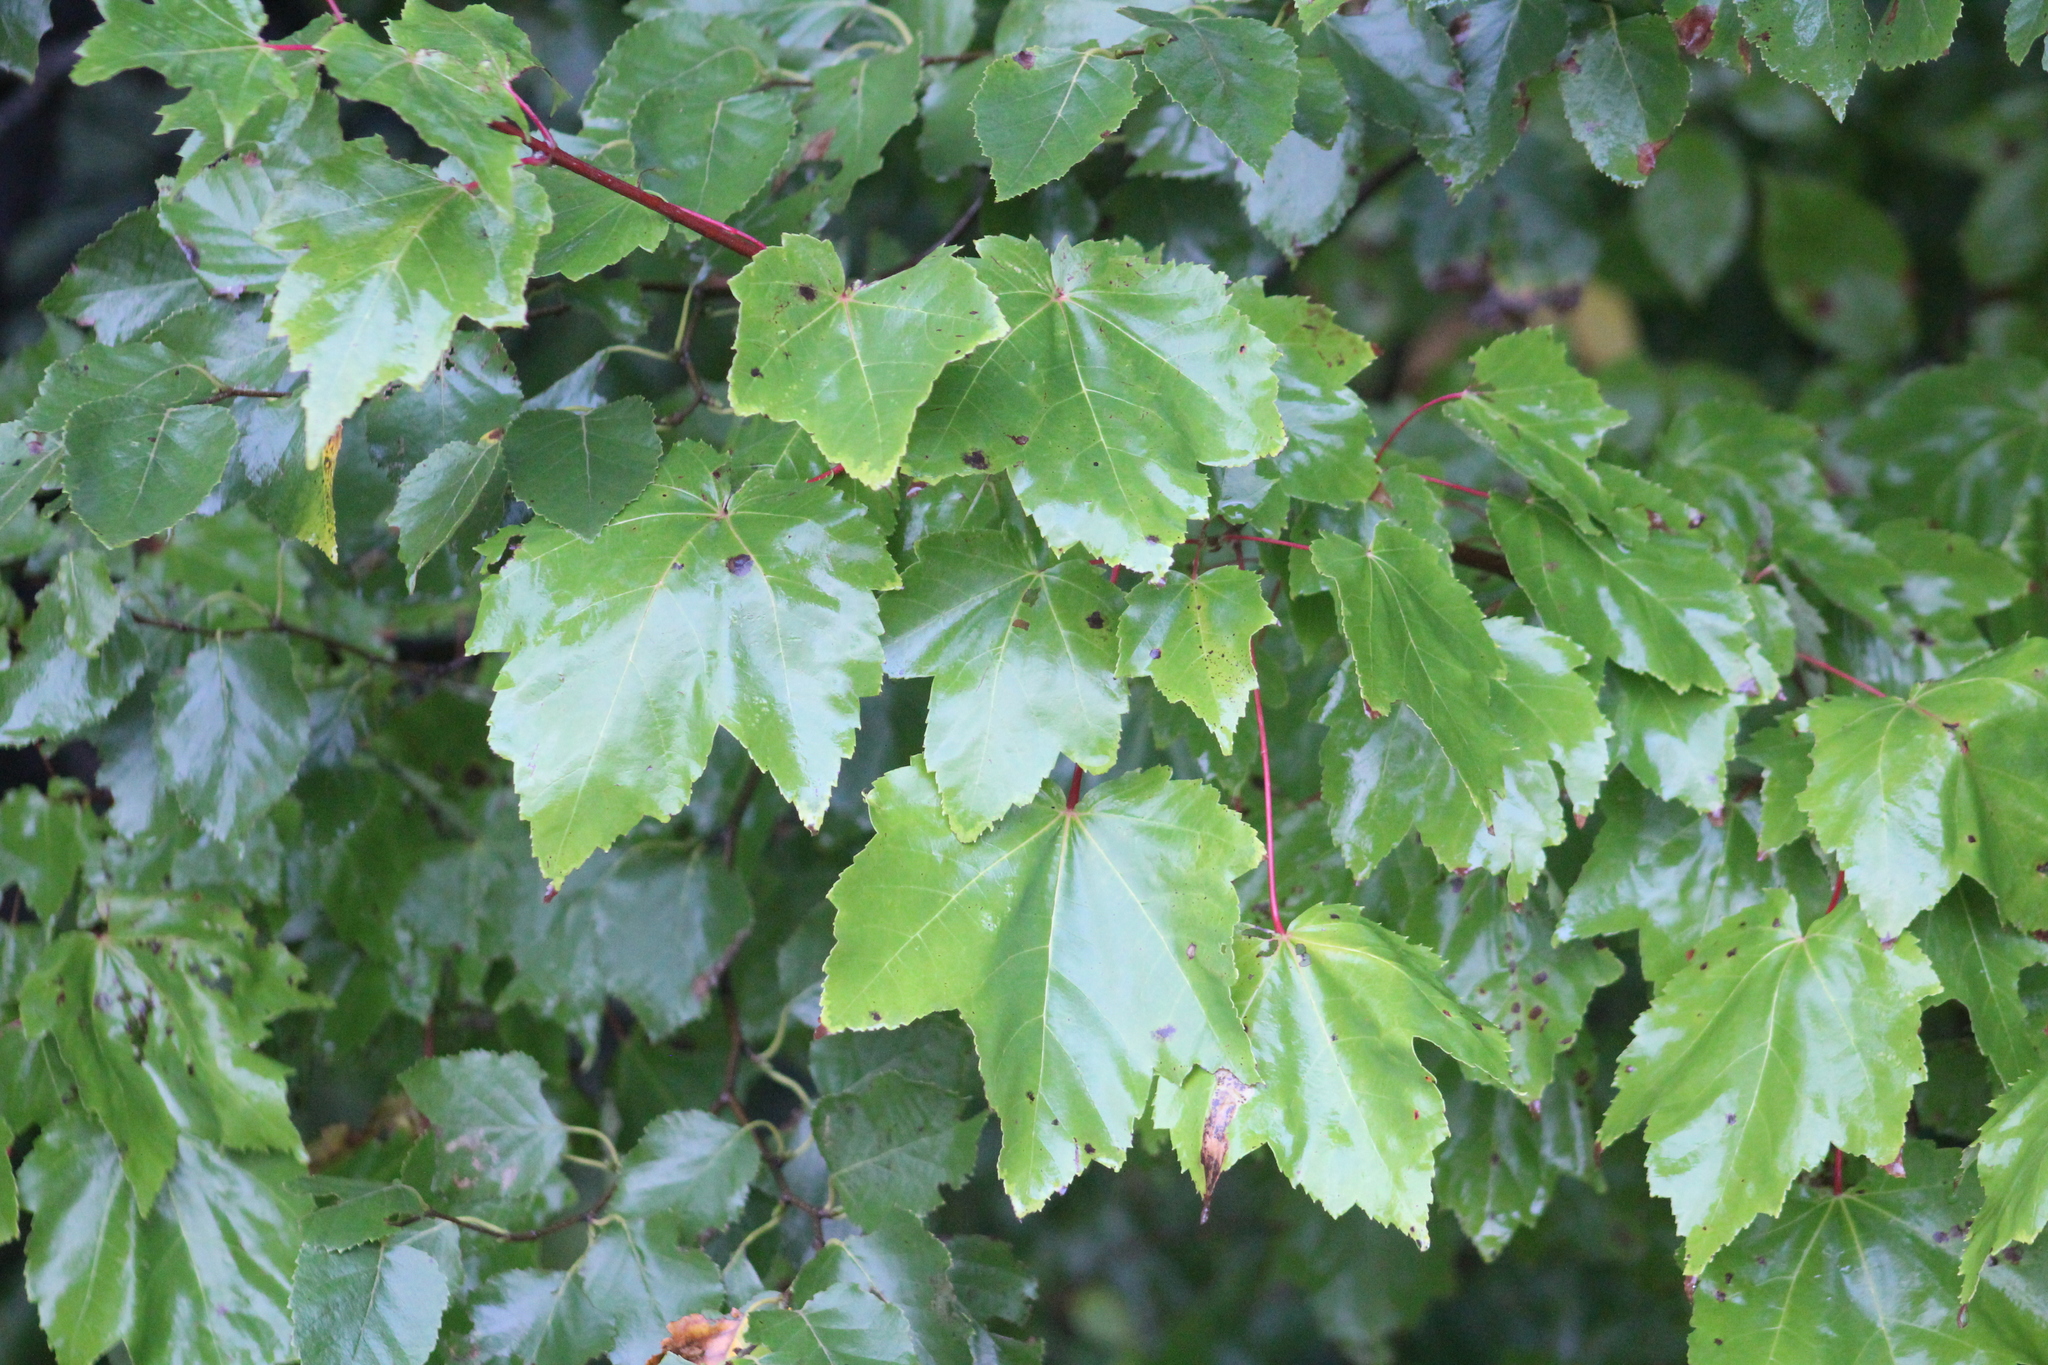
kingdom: Plantae
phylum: Tracheophyta
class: Magnoliopsida
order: Sapindales
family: Sapindaceae
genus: Acer
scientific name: Acer rubrum
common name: Red maple
